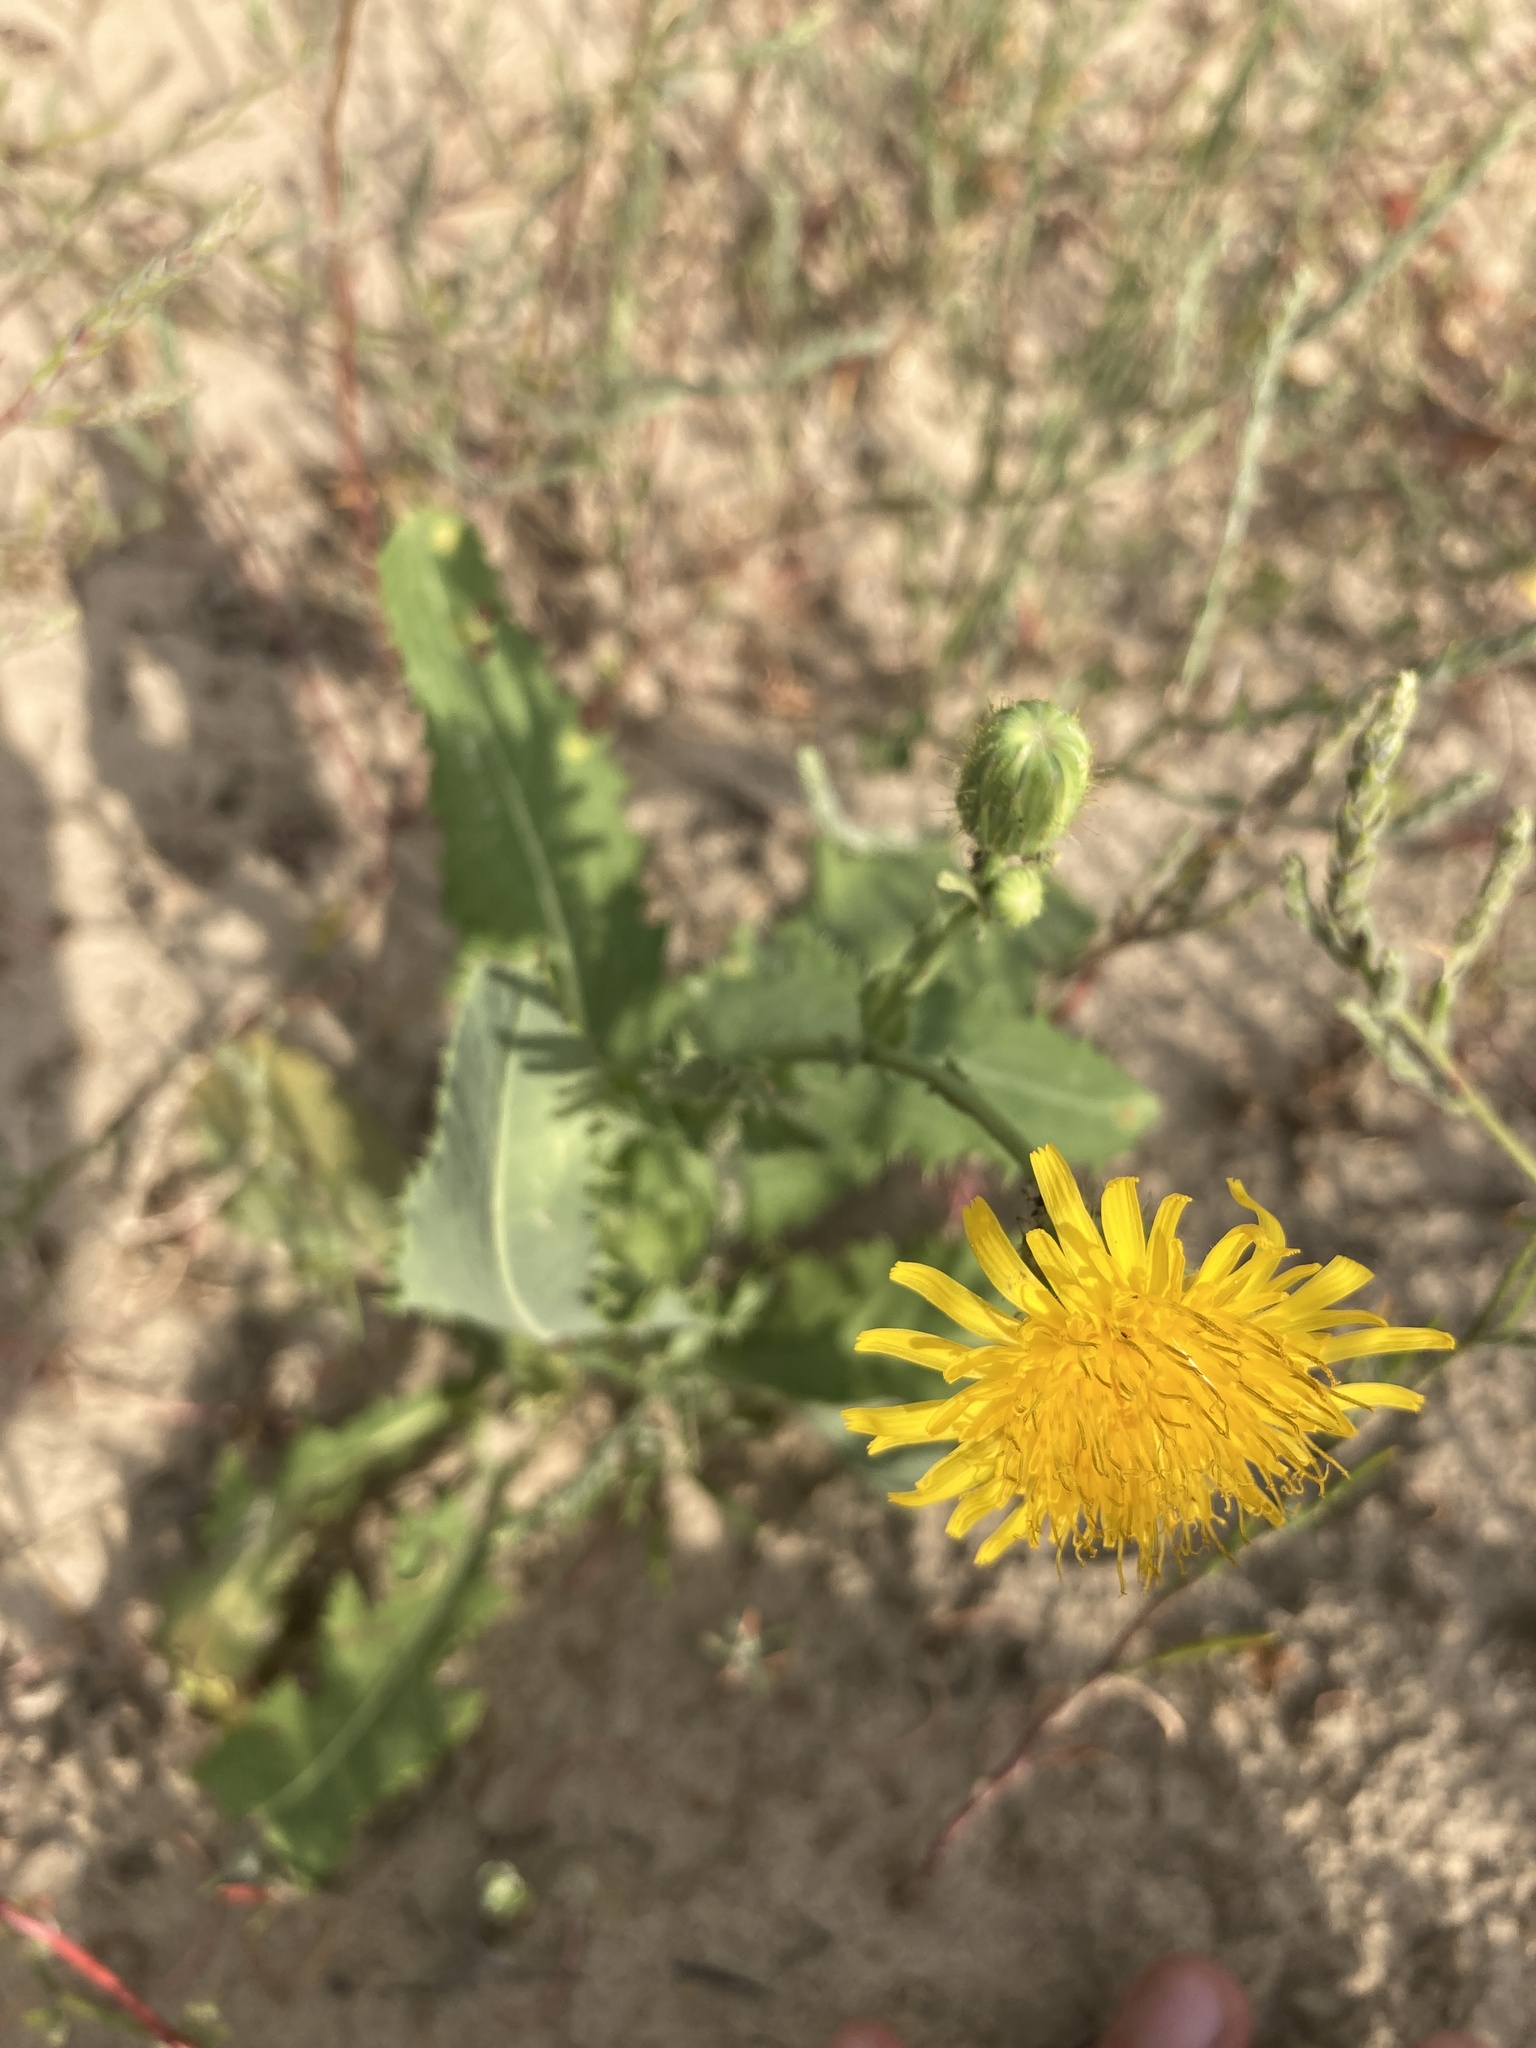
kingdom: Plantae
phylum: Tracheophyta
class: Magnoliopsida
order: Asterales
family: Asteraceae
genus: Sonchus
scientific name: Sonchus arvensis
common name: Perennial sow-thistle
